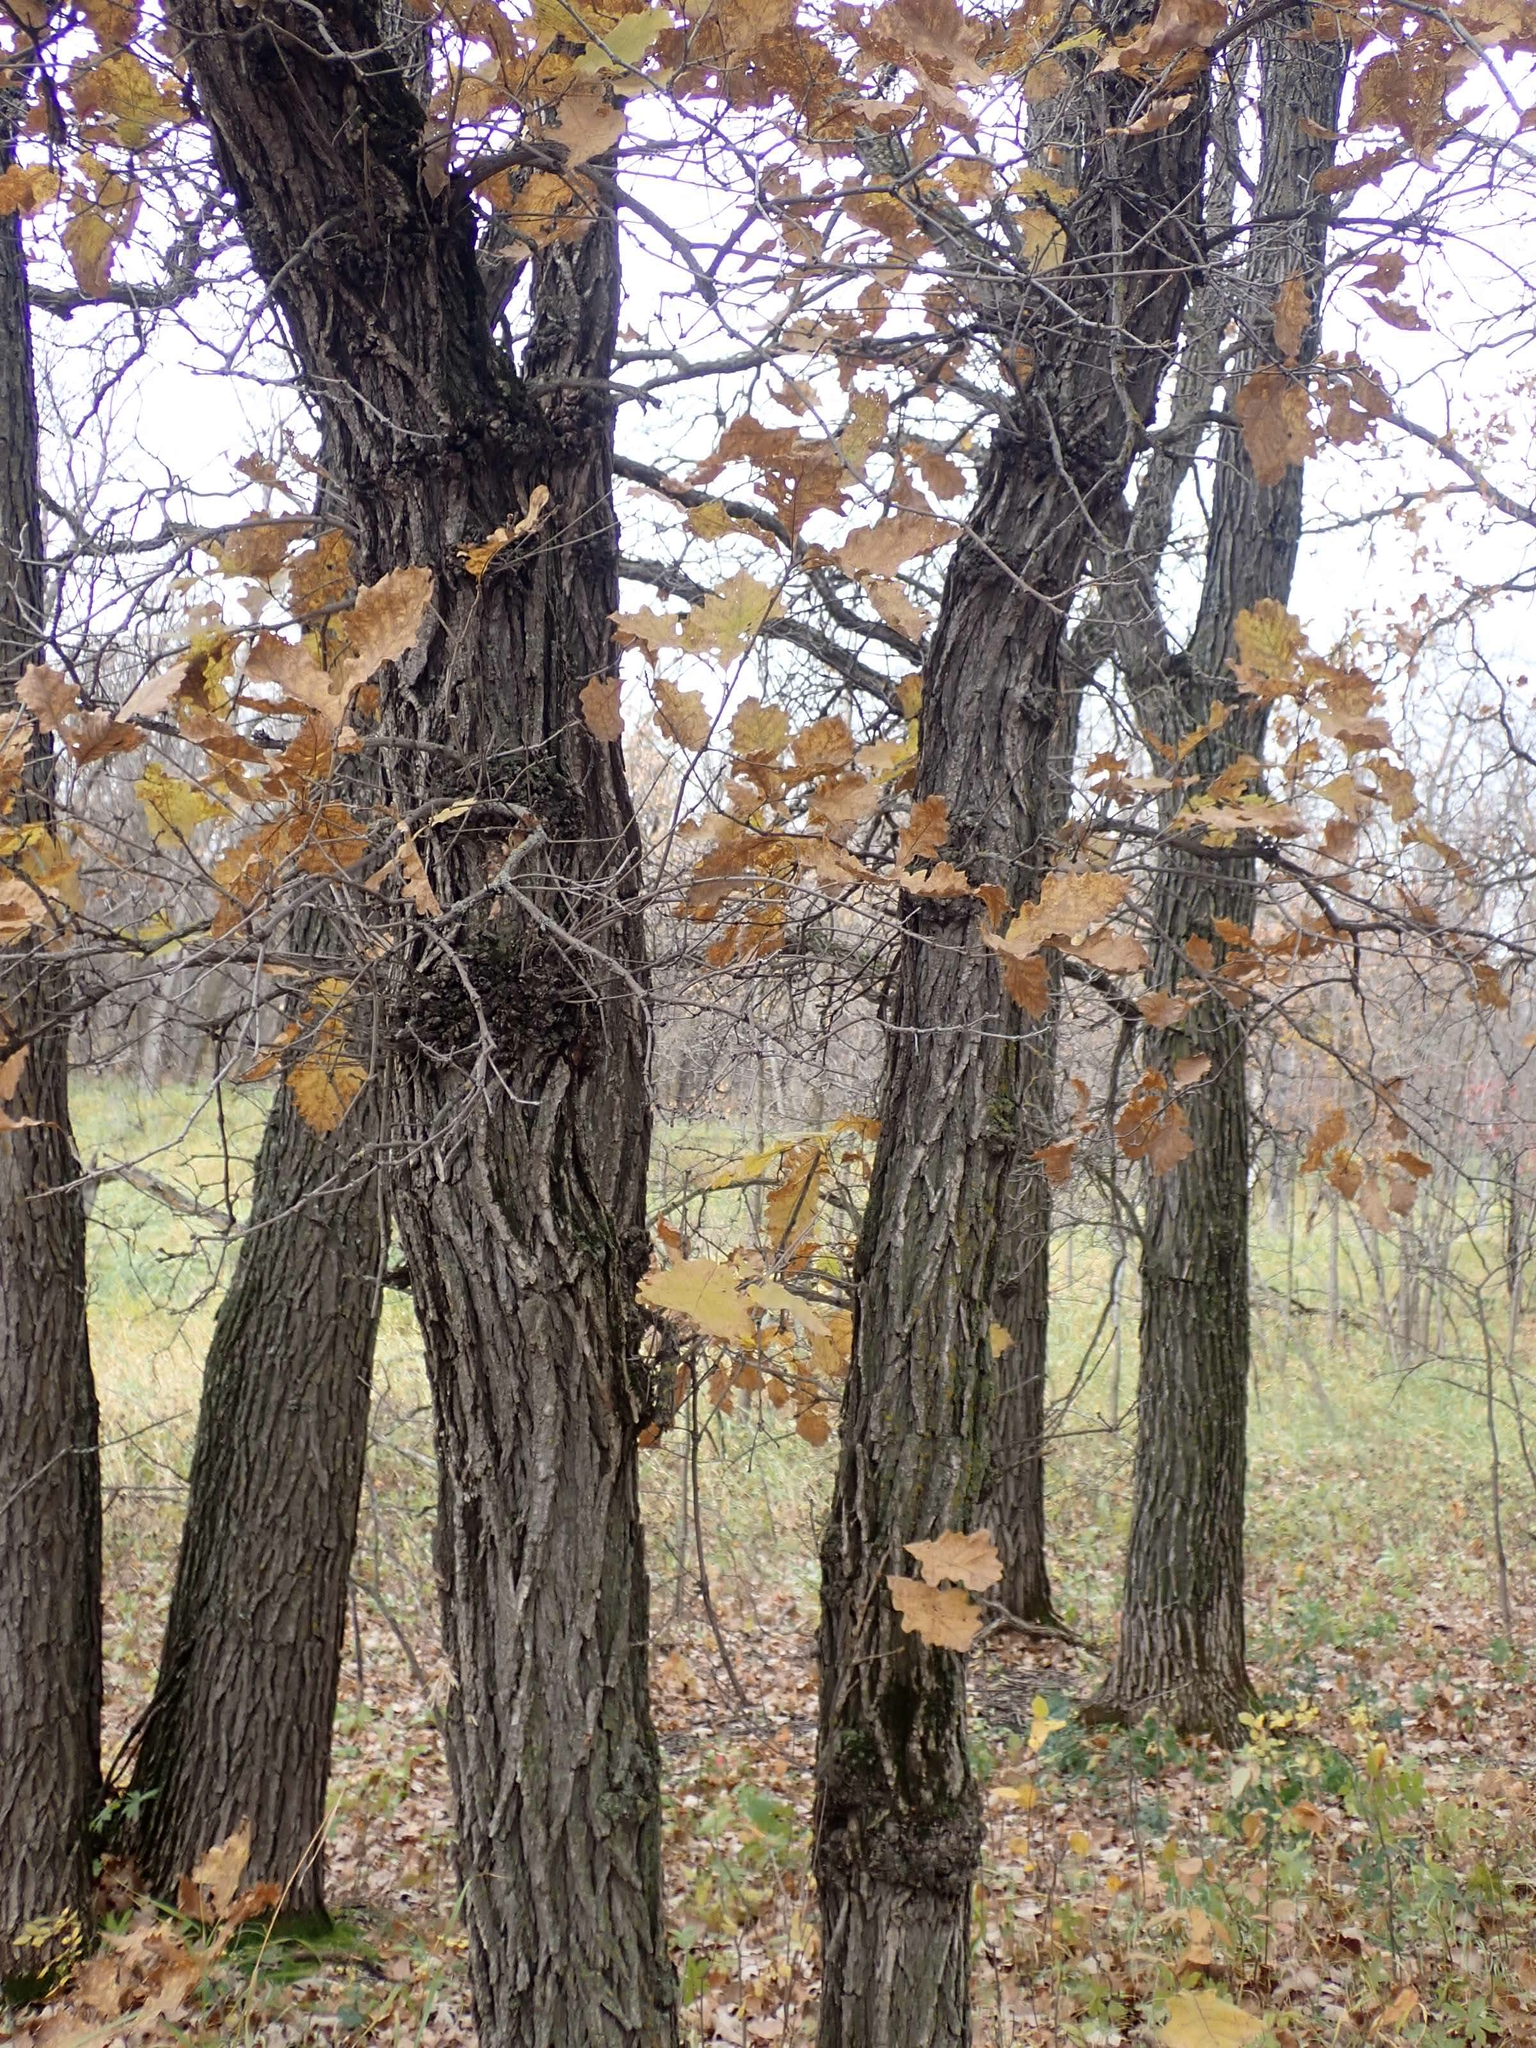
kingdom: Plantae
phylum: Tracheophyta
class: Magnoliopsida
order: Fagales
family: Fagaceae
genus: Quercus
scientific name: Quercus macrocarpa
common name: Bur oak
